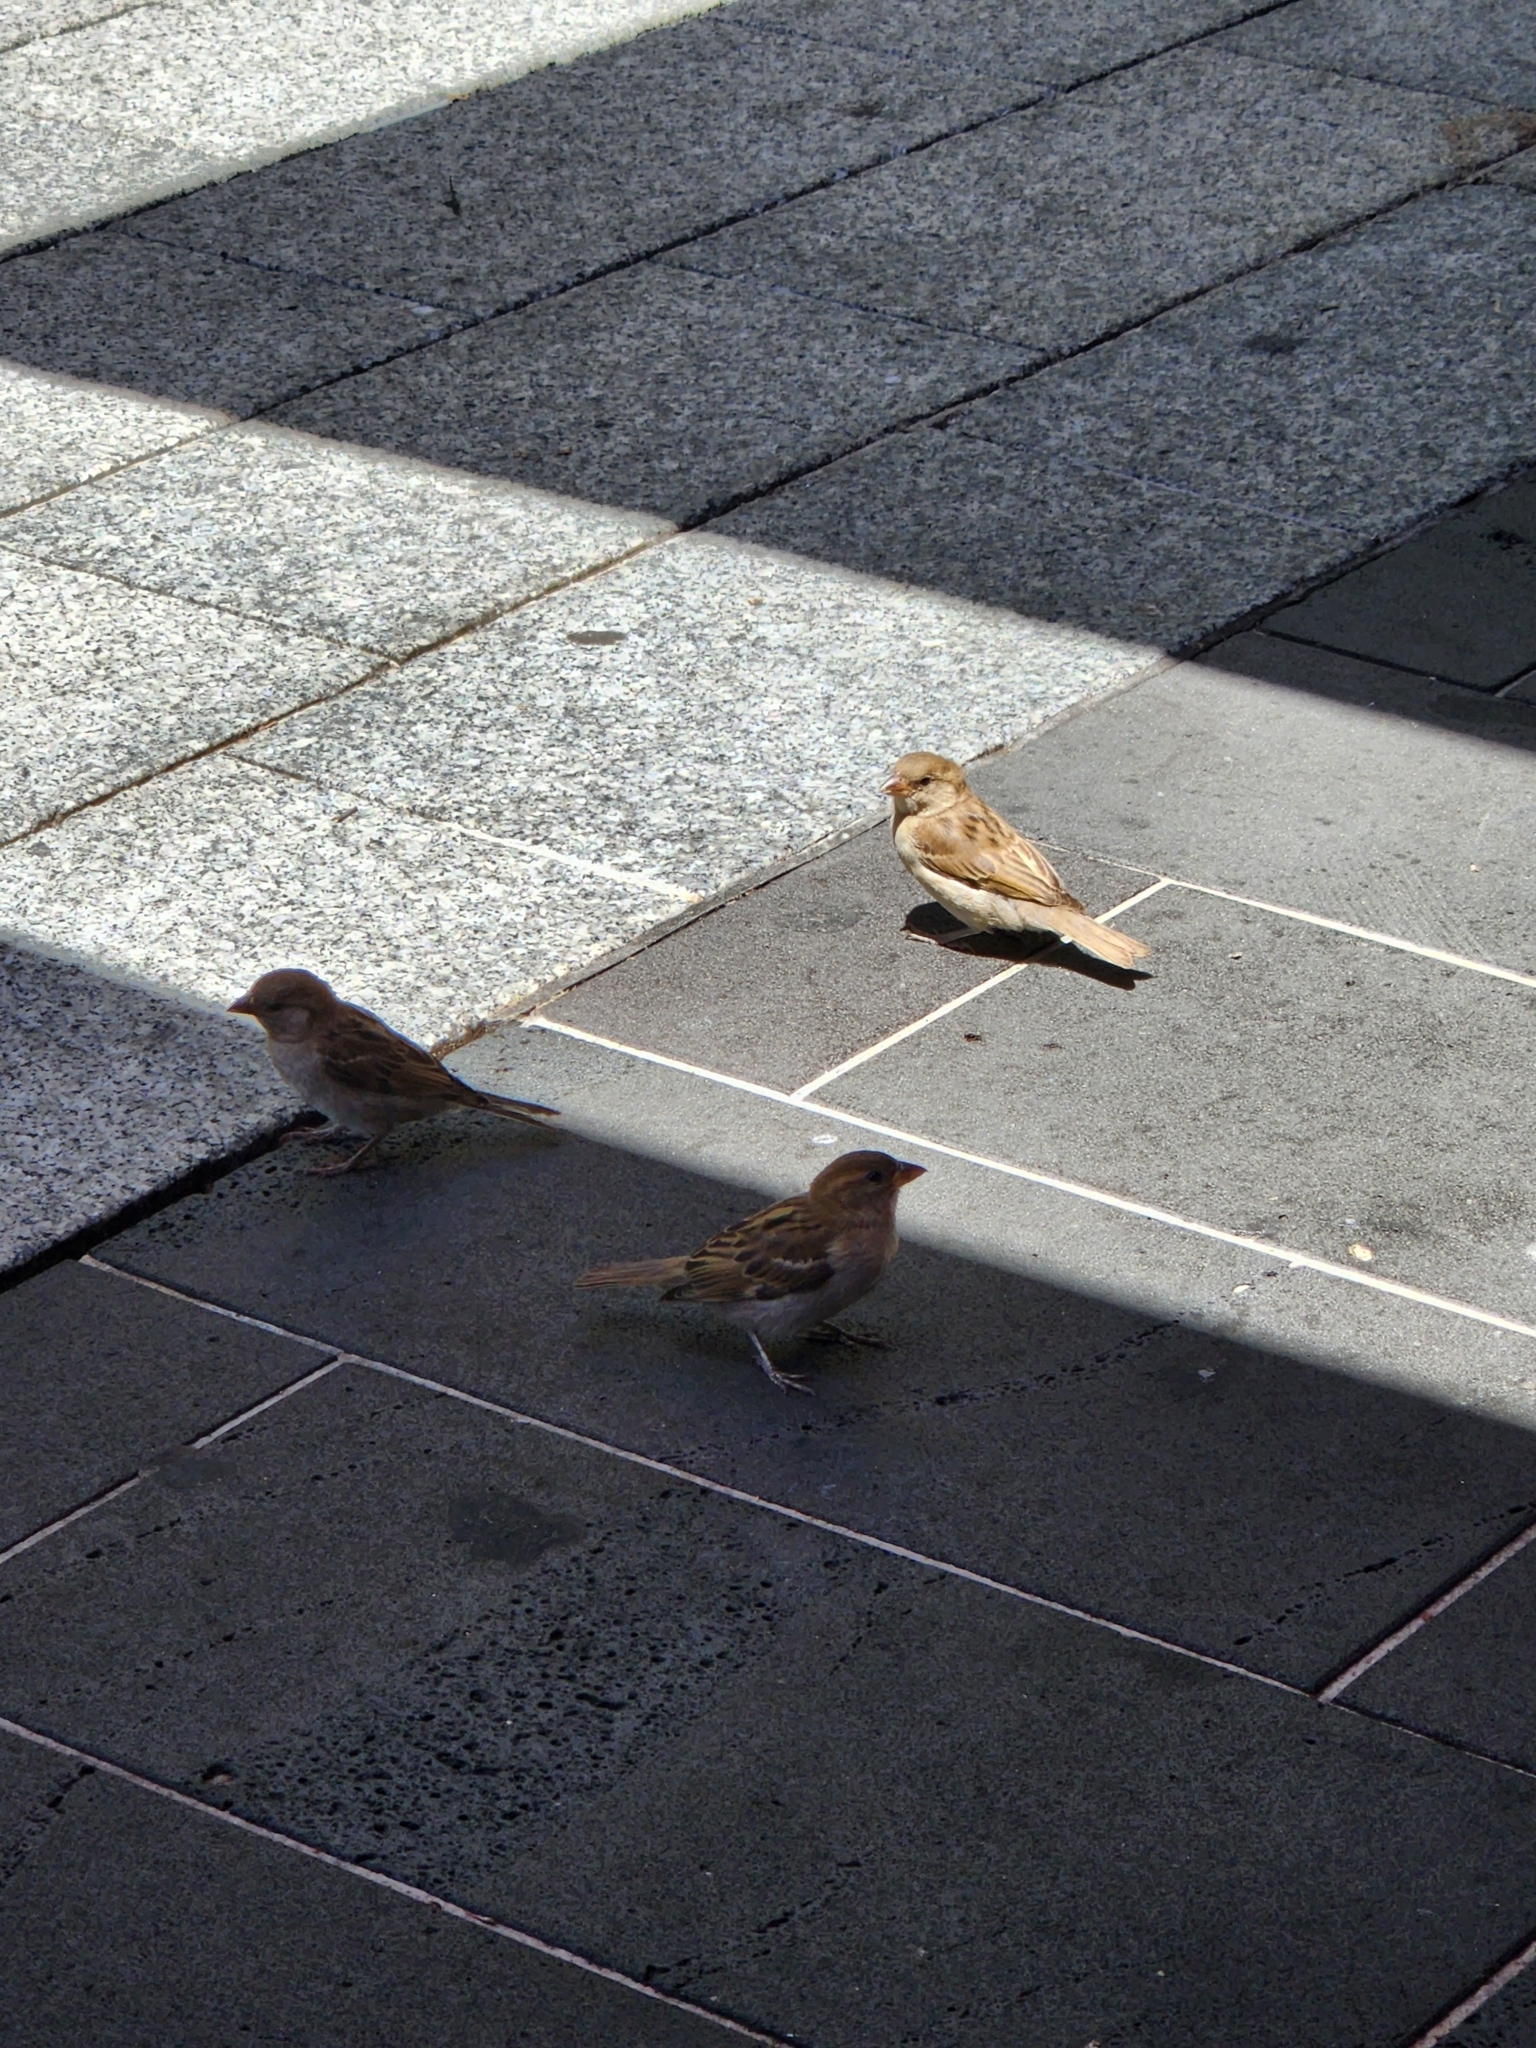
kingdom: Animalia
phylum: Chordata
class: Aves
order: Passeriformes
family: Passeridae
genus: Passer
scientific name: Passer domesticus
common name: House sparrow
